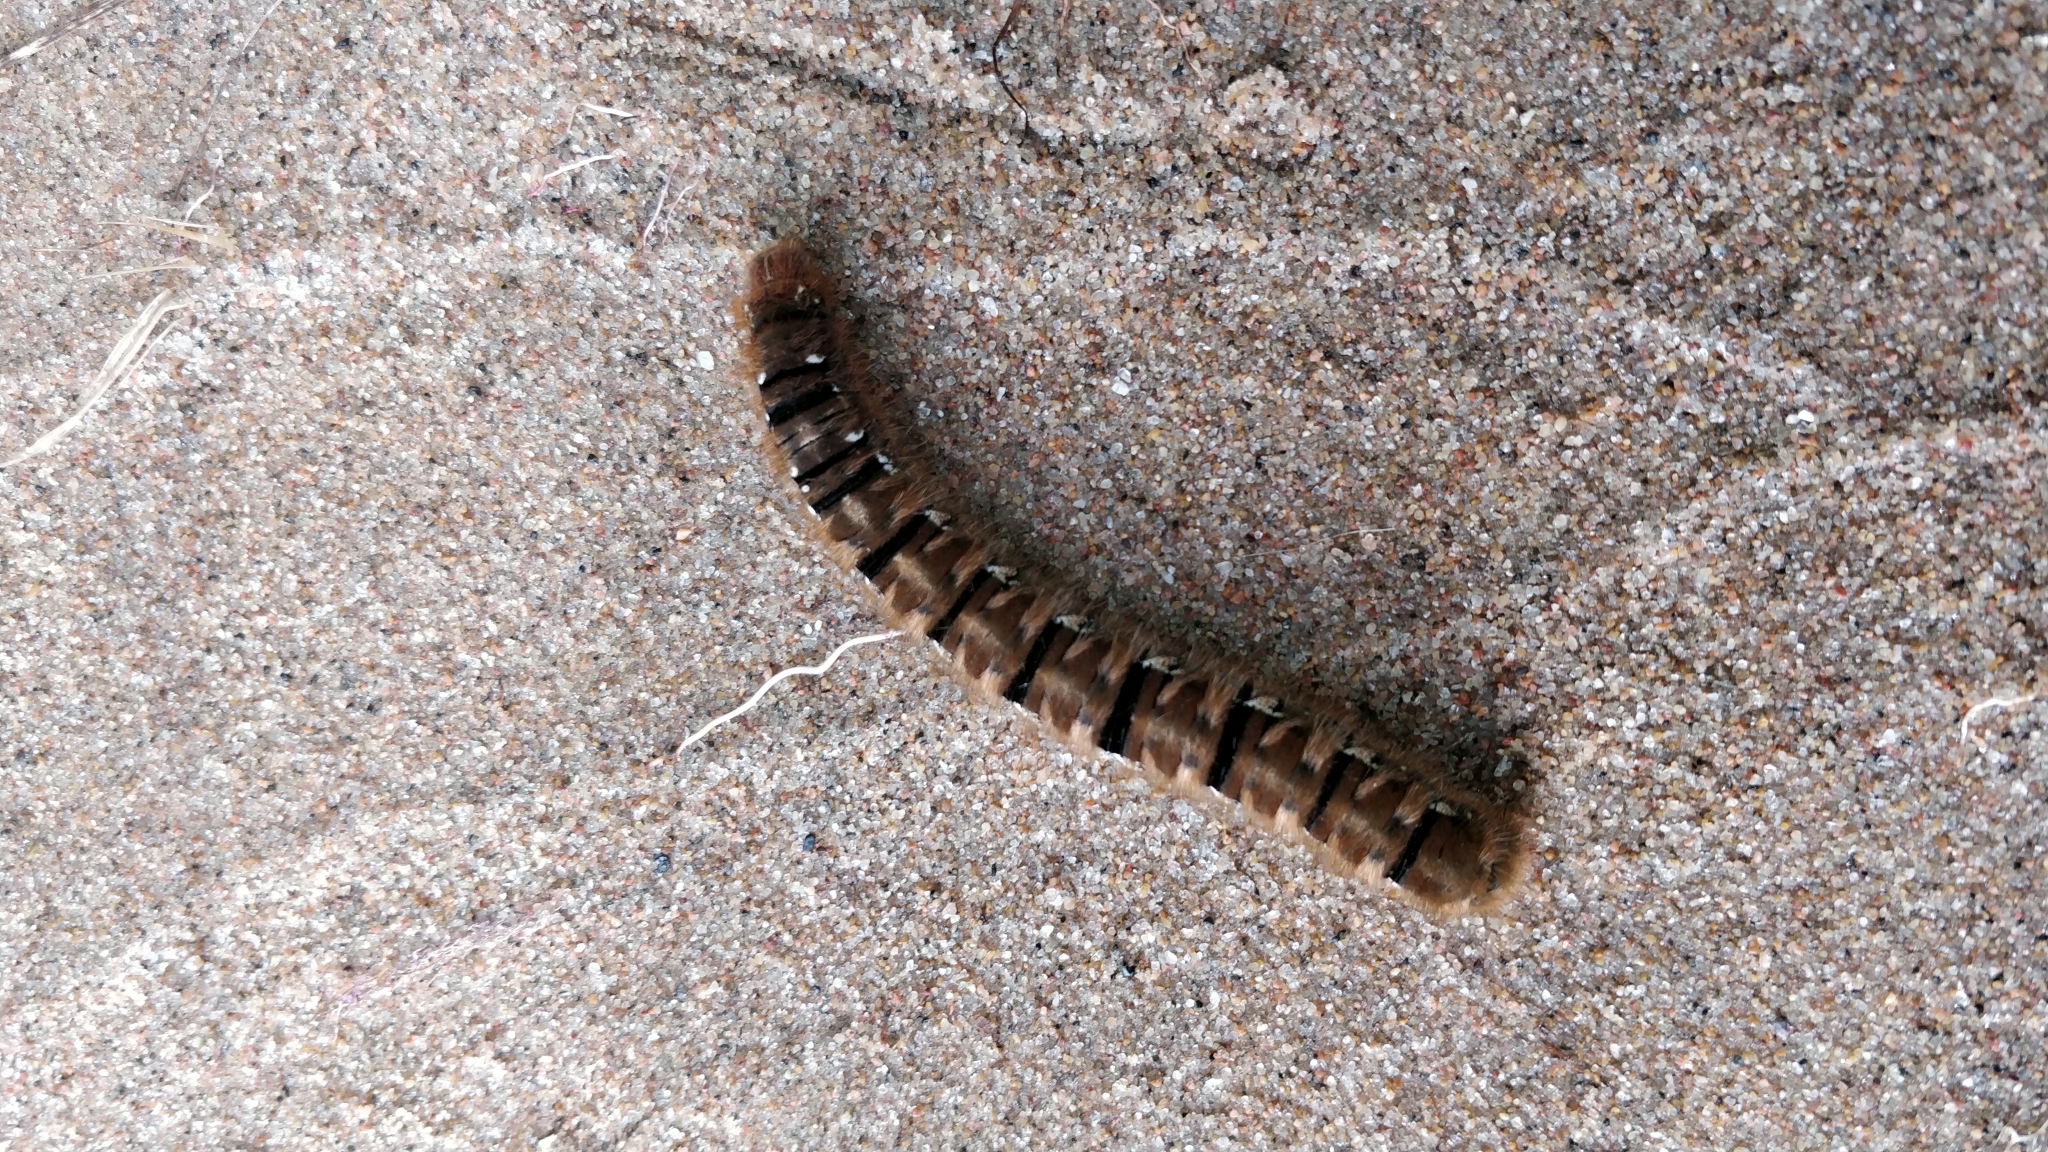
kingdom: Animalia
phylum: Arthropoda
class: Insecta
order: Lepidoptera
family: Lasiocampidae
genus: Lasiocampa
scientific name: Lasiocampa quercus
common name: Oak eggar
